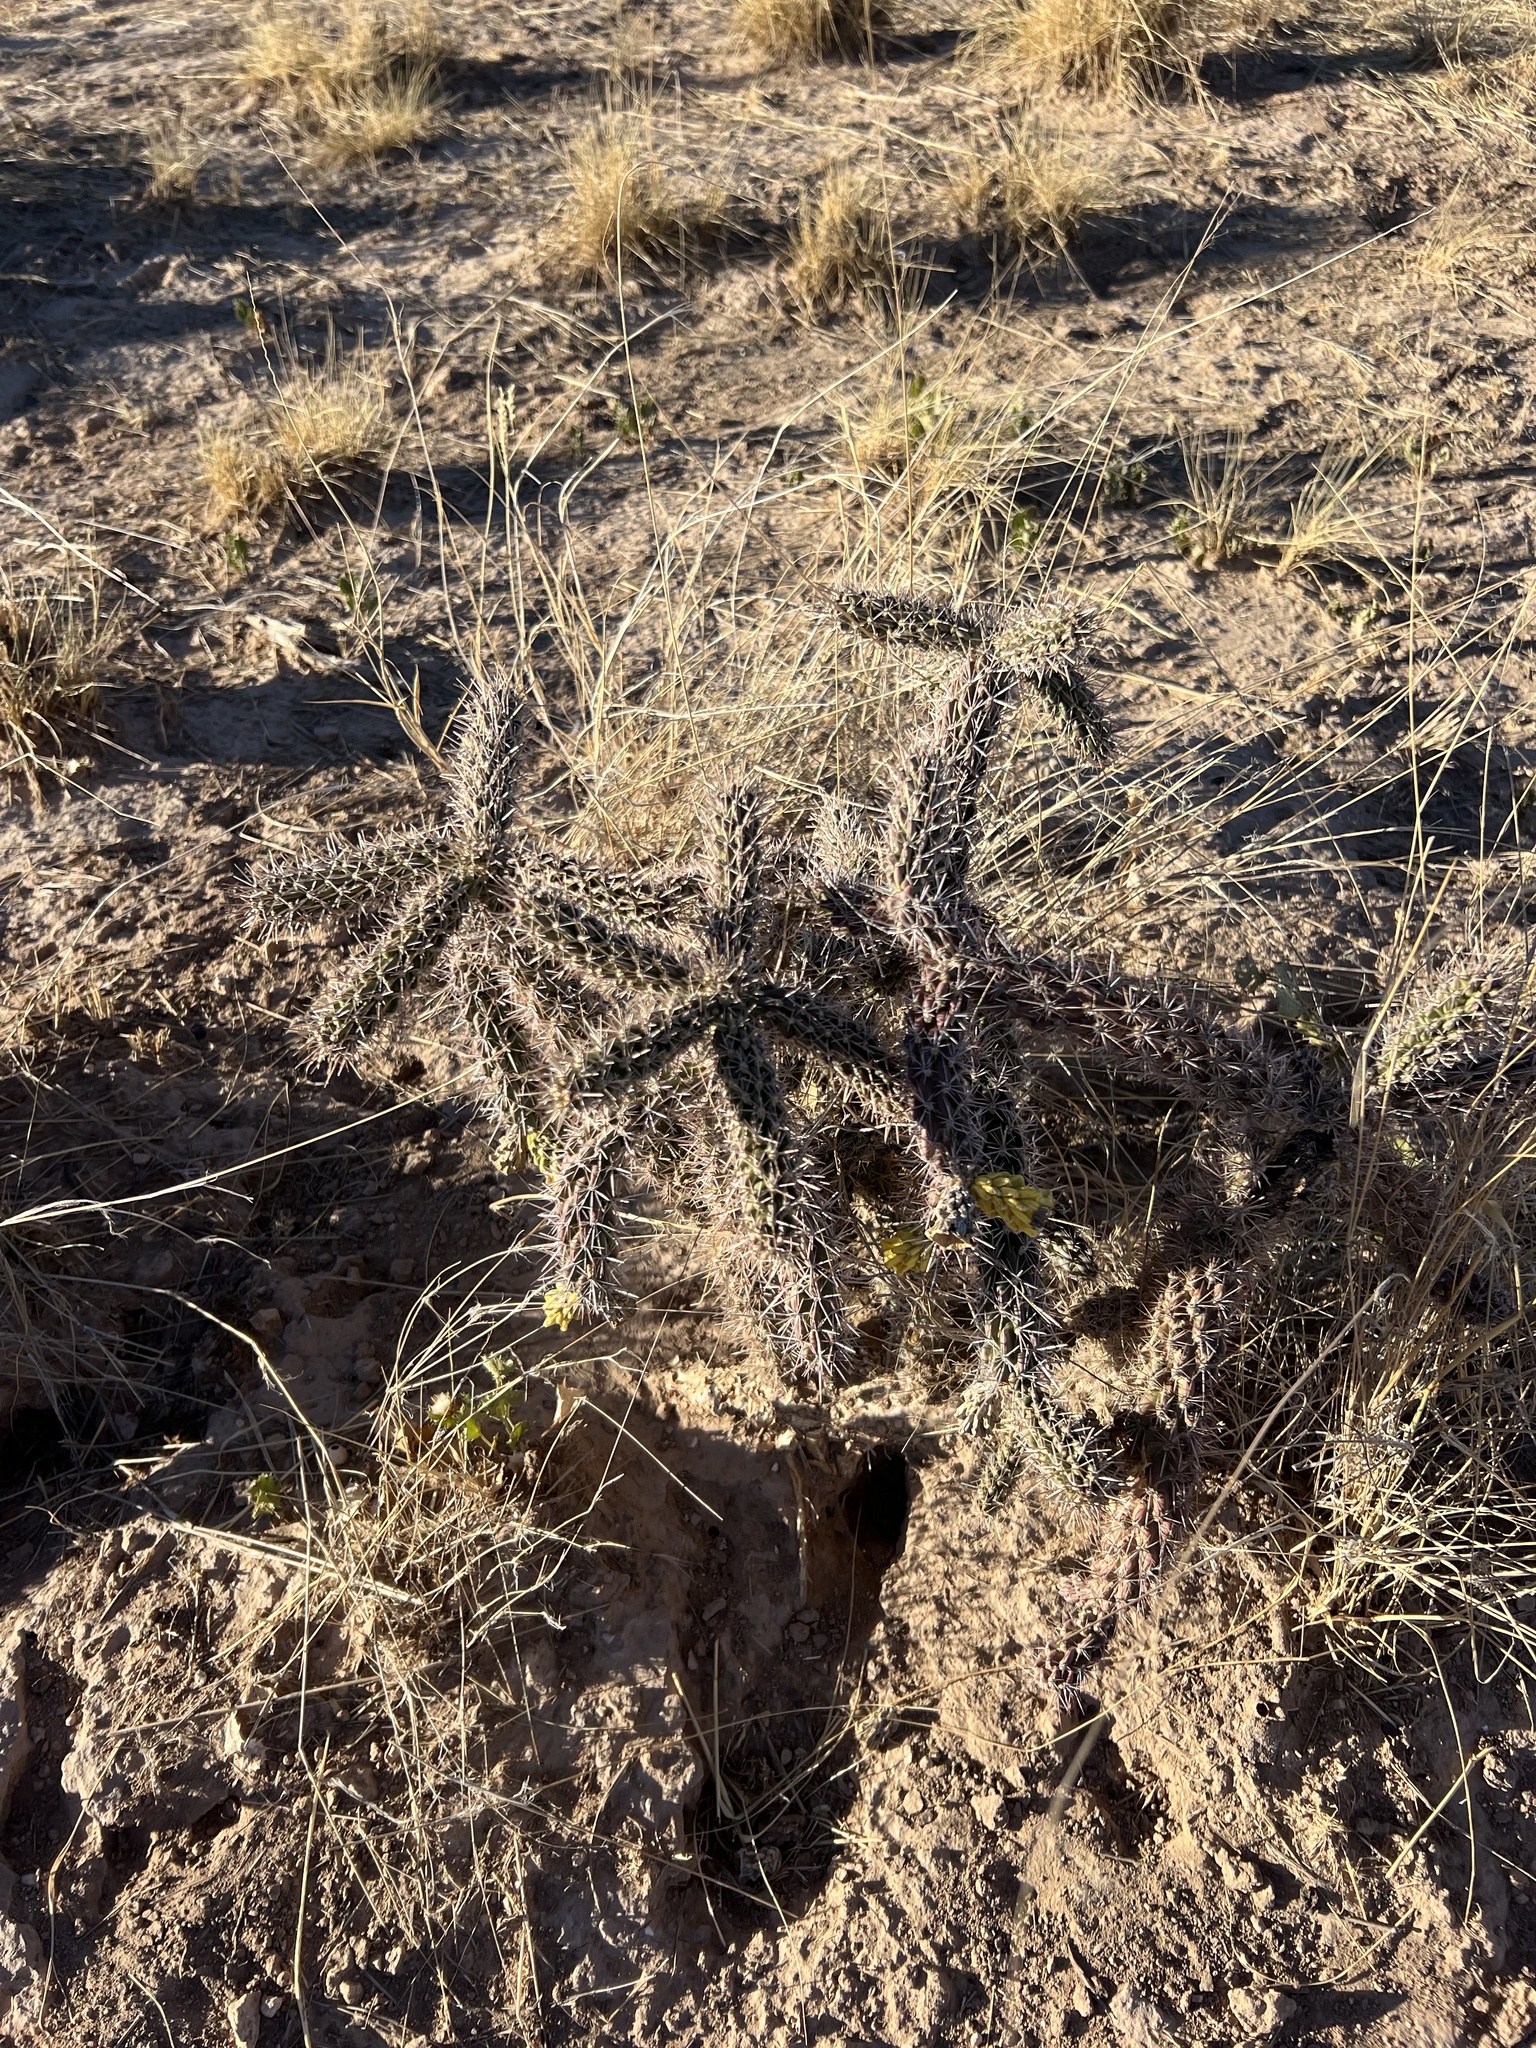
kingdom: Plantae
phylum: Tracheophyta
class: Magnoliopsida
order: Caryophyllales
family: Cactaceae
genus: Cylindropuntia
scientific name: Cylindropuntia imbricata
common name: Candelabrum cactus
